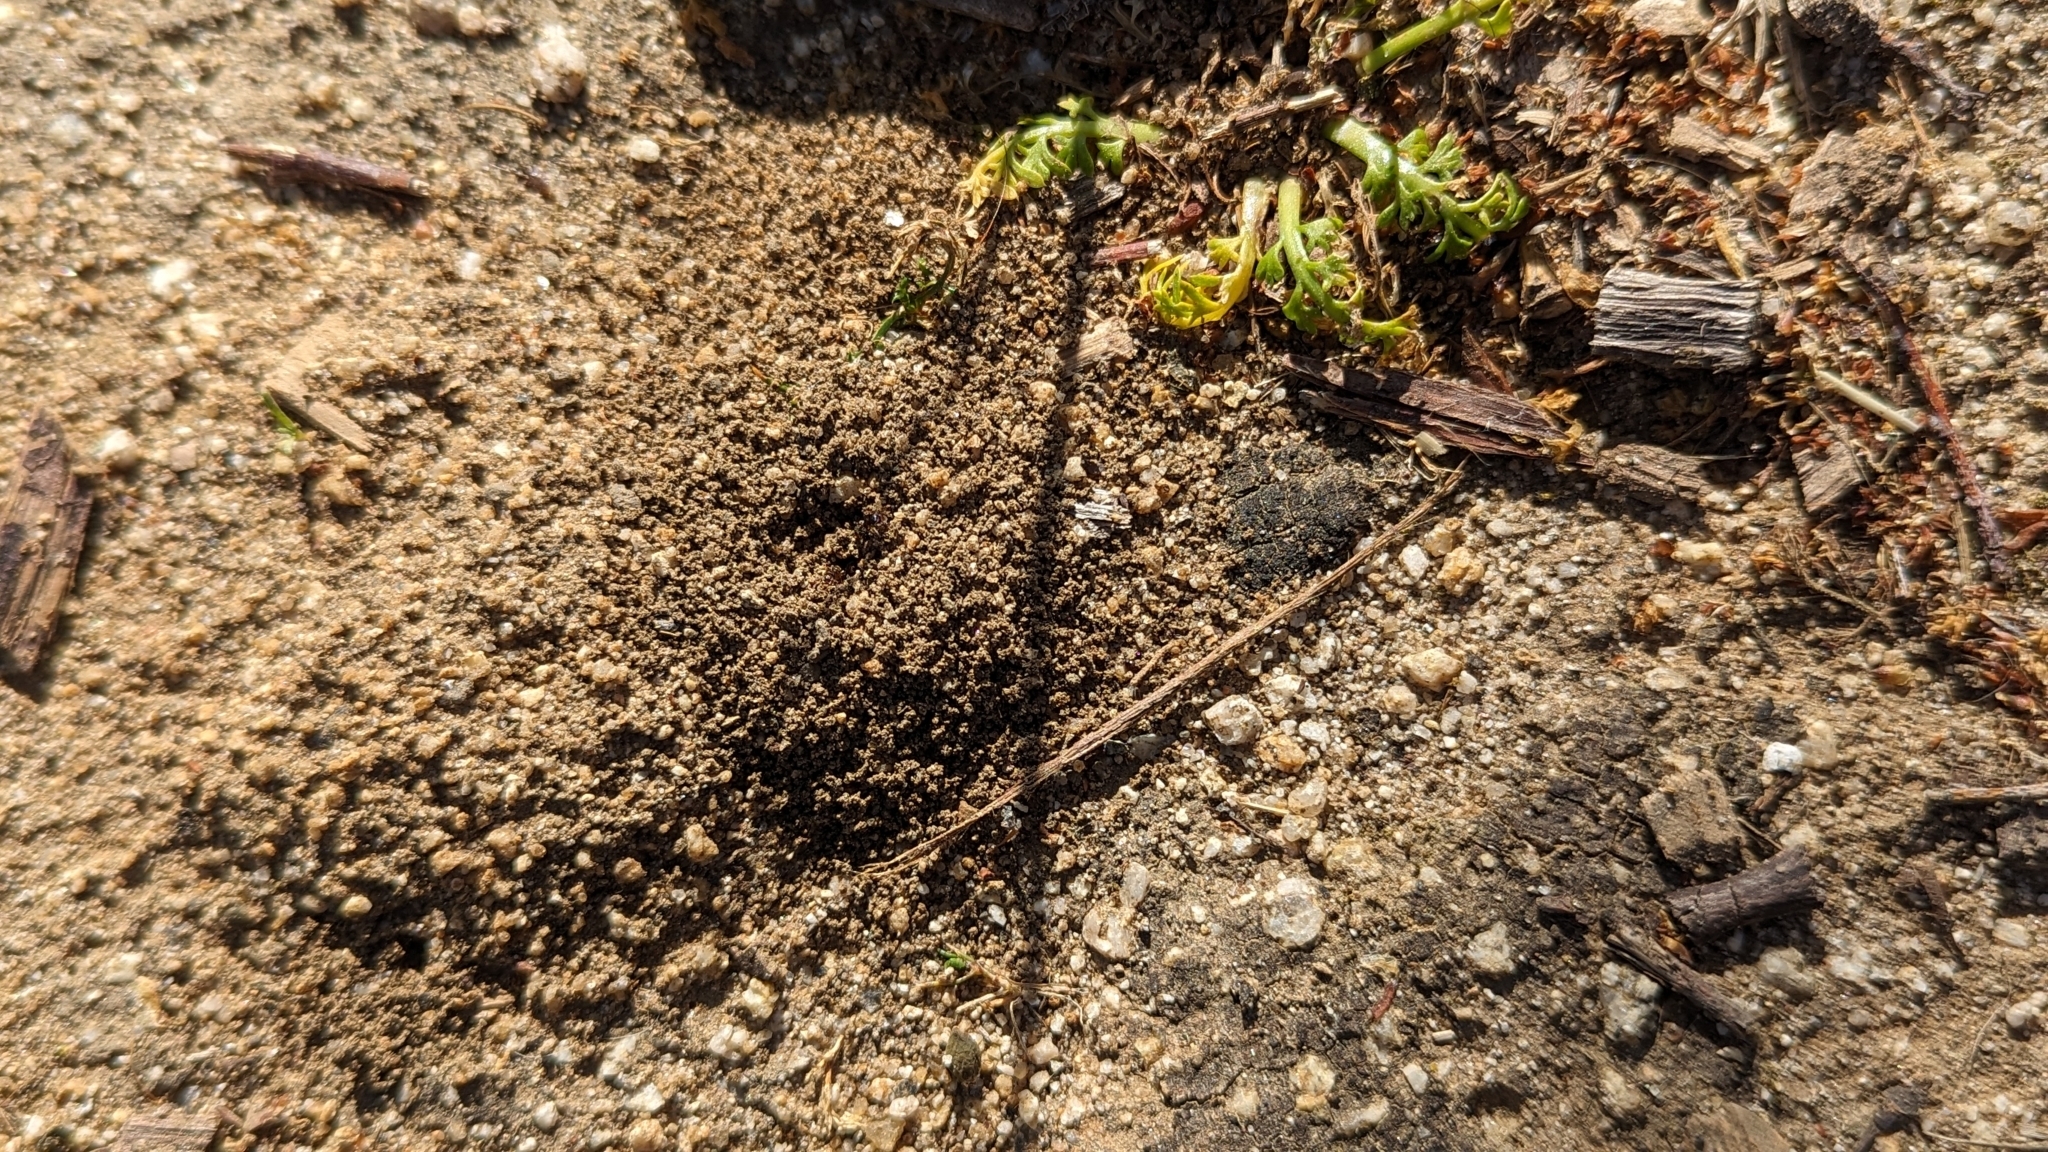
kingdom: Animalia
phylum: Arthropoda
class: Insecta
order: Hymenoptera
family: Formicidae
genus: Tetramorium
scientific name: Tetramorium immigrans
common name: Pavement ant
